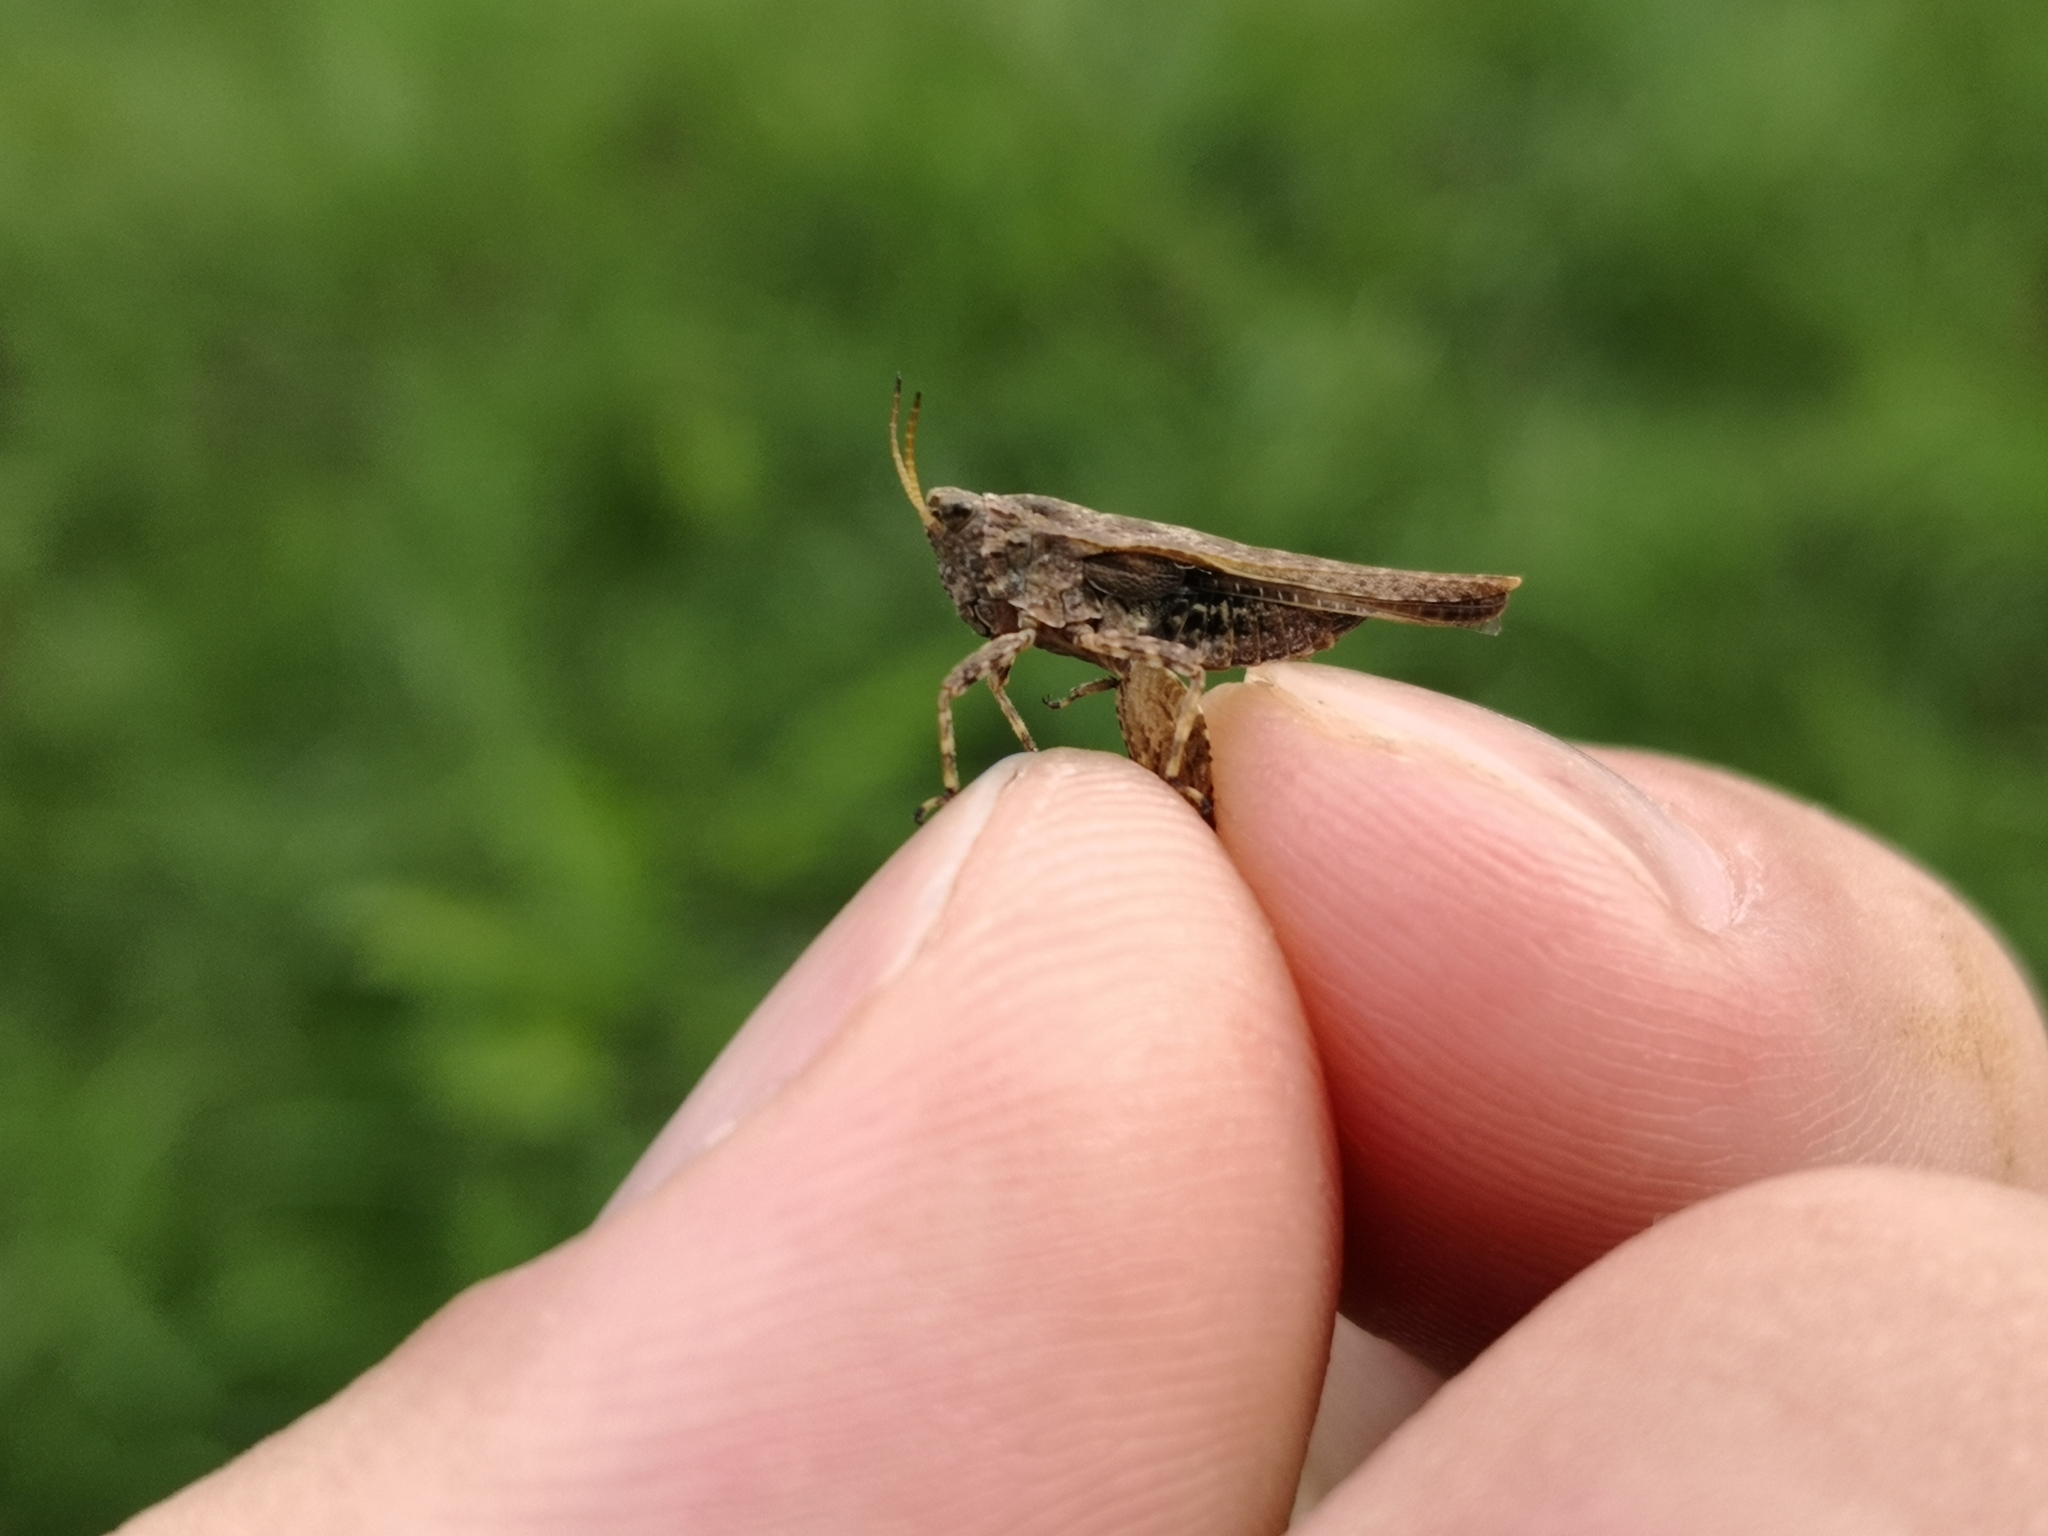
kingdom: Animalia
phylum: Arthropoda
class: Insecta
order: Orthoptera
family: Tetrigidae
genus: Tetrix
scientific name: Tetrix subulata
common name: Slender ground-hopper
